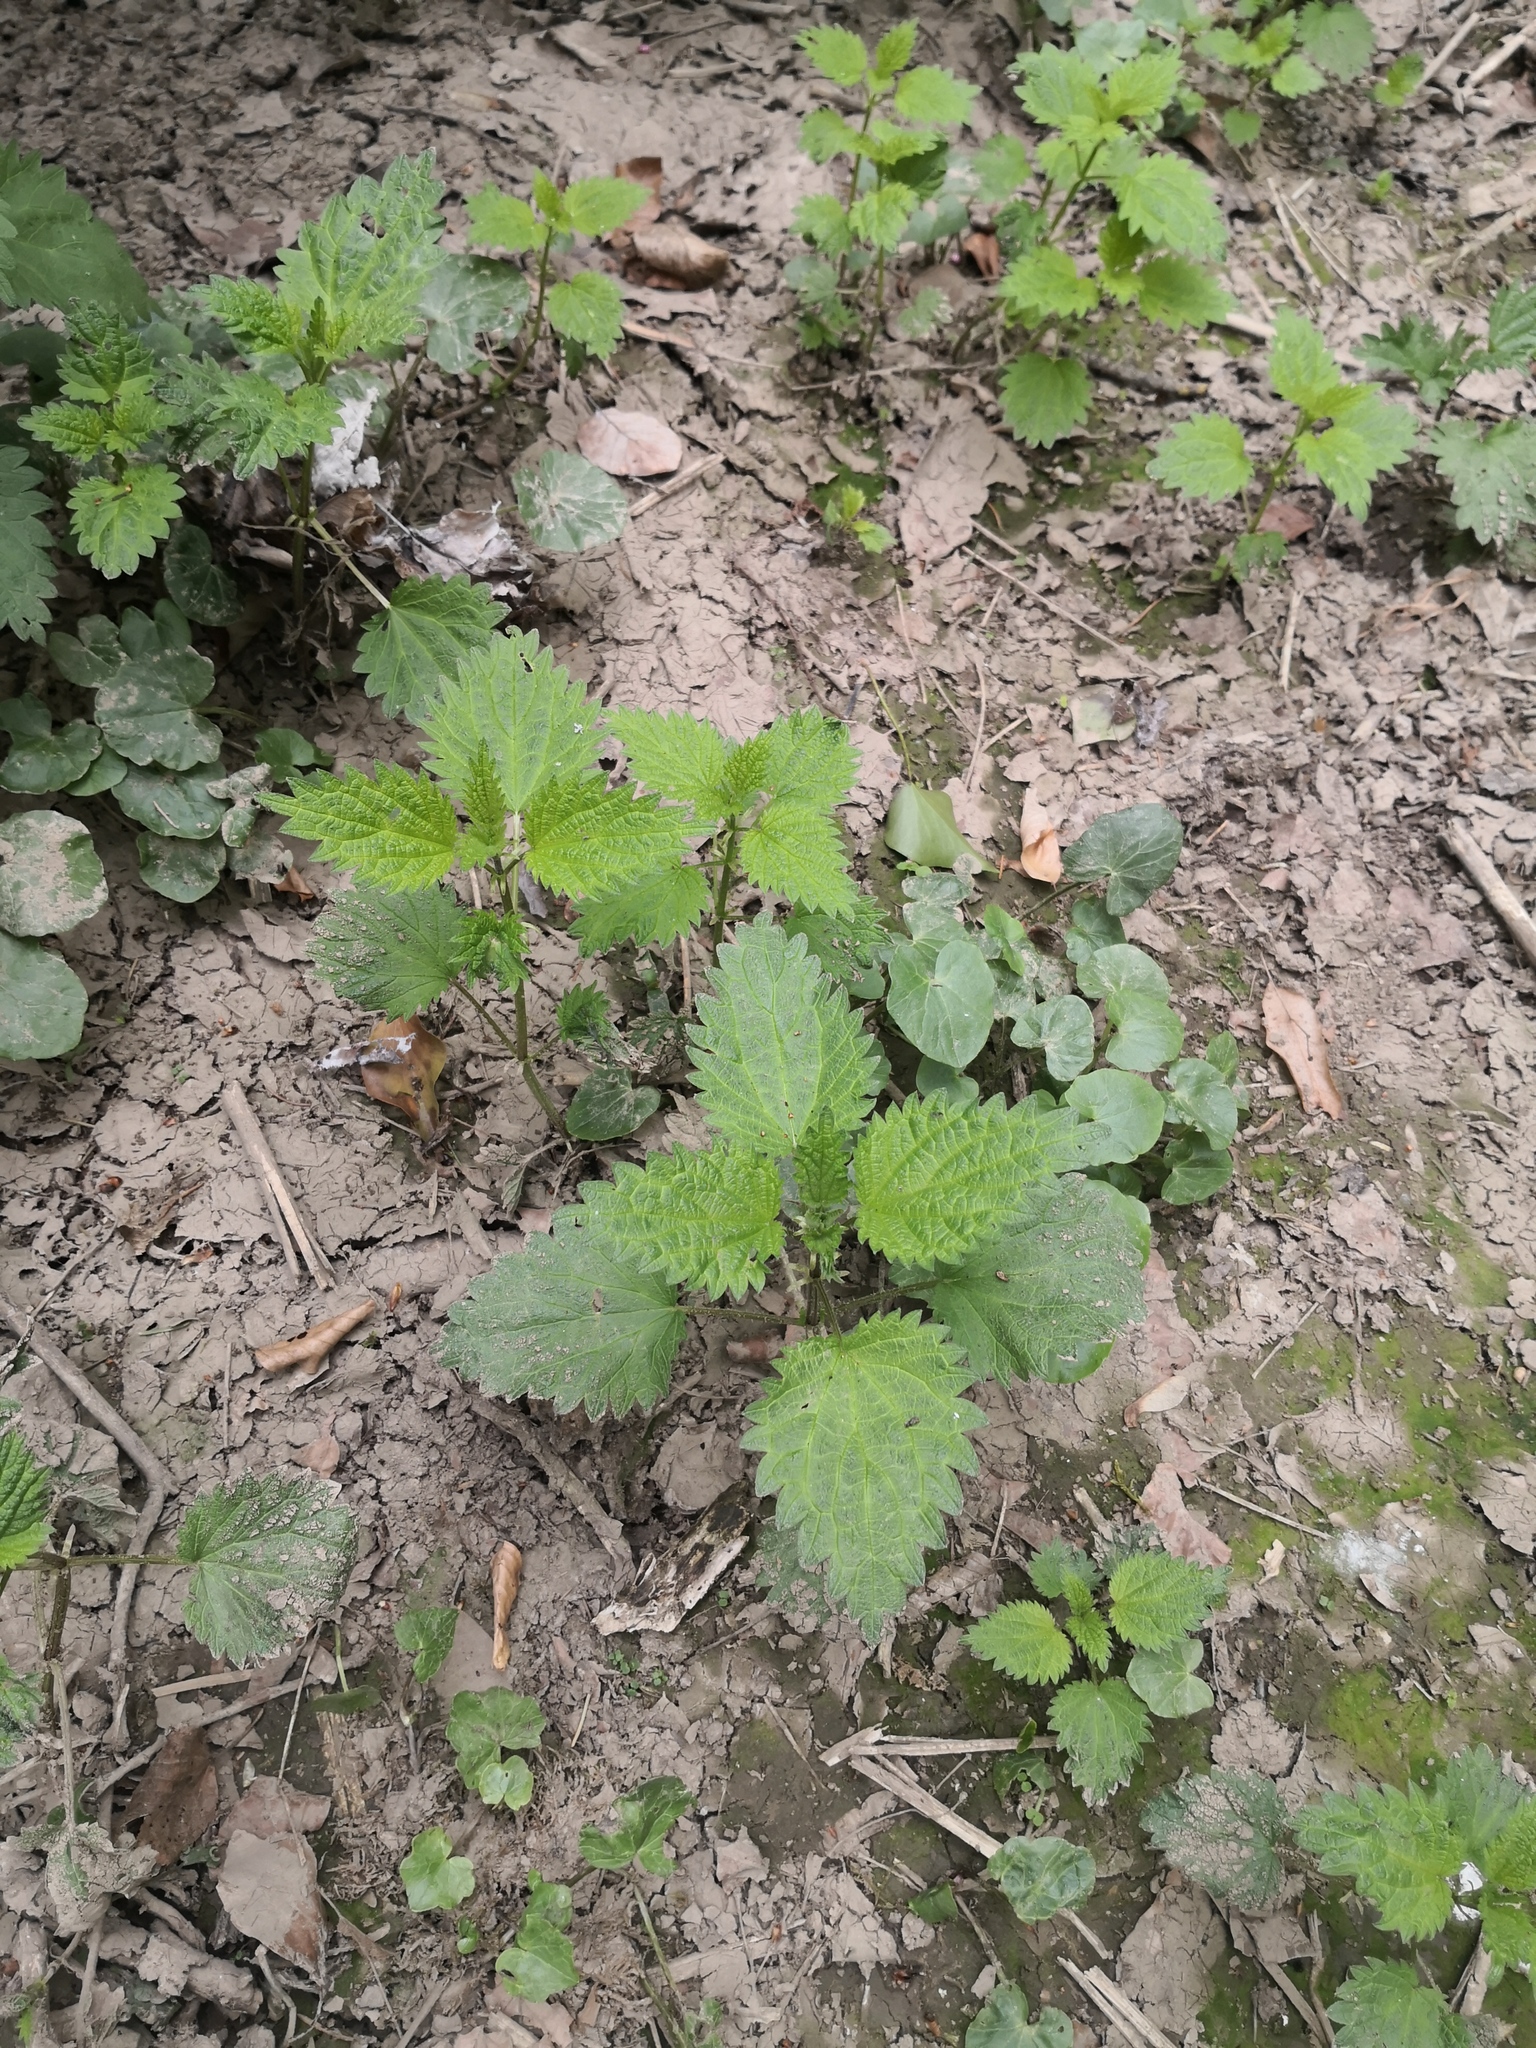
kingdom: Plantae
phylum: Tracheophyta
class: Magnoliopsida
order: Rosales
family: Urticaceae
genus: Urtica
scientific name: Urtica dioica
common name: Common nettle
